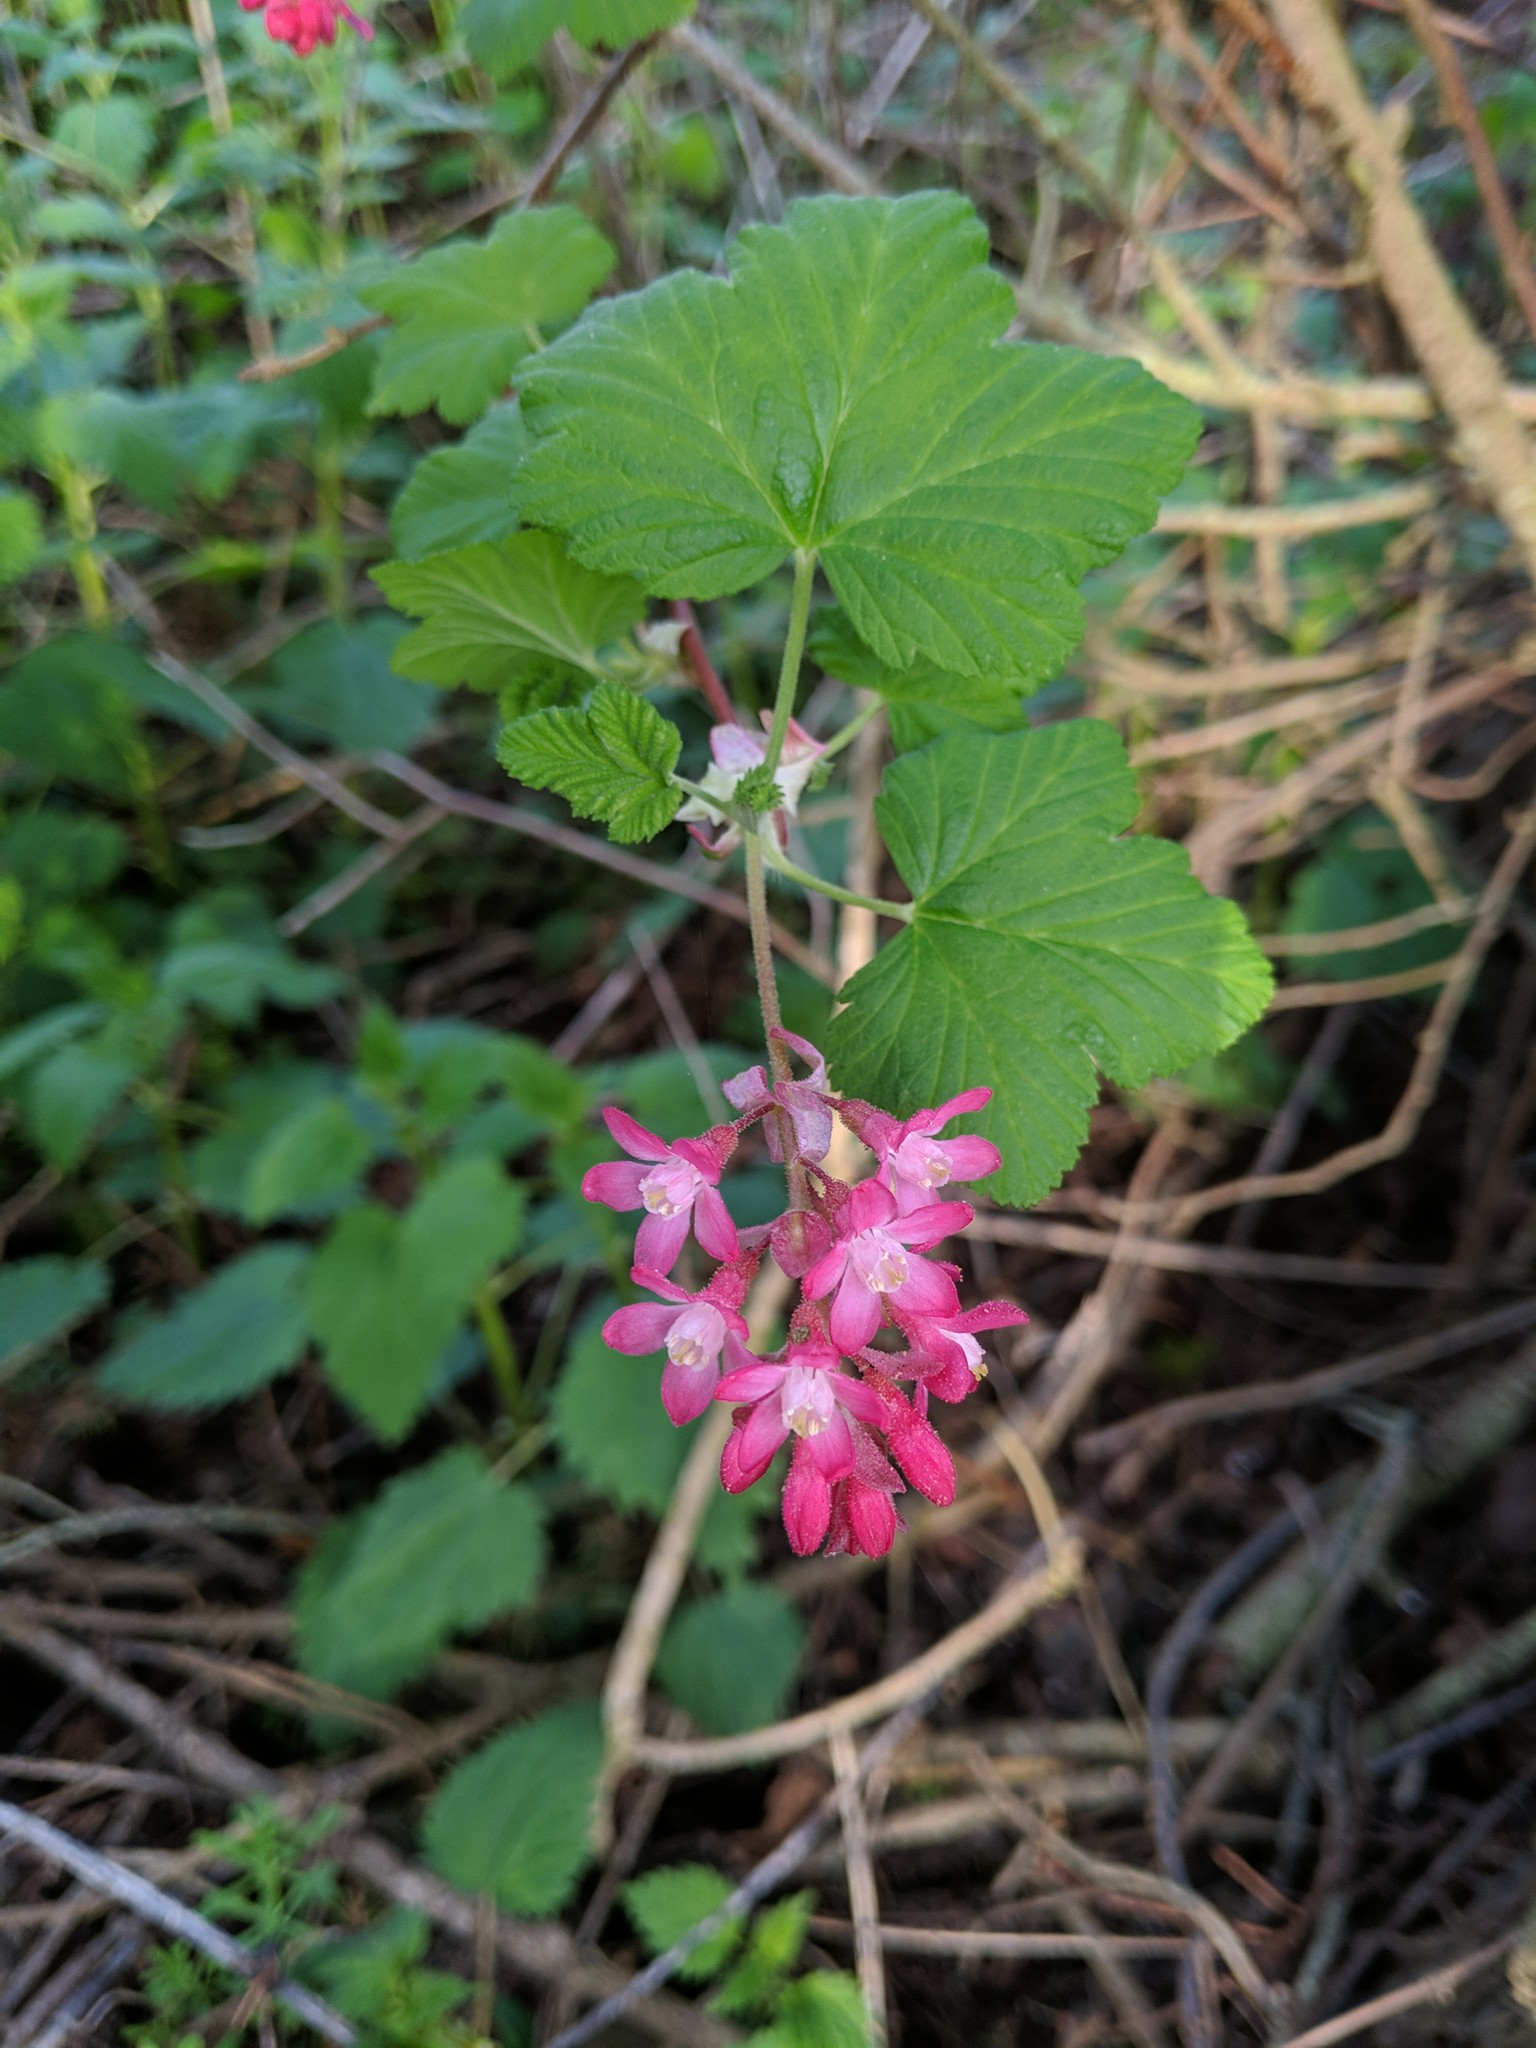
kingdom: Plantae
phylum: Tracheophyta
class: Magnoliopsida
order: Saxifragales
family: Grossulariaceae
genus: Ribes
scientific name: Ribes sanguineum
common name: Flowering currant
